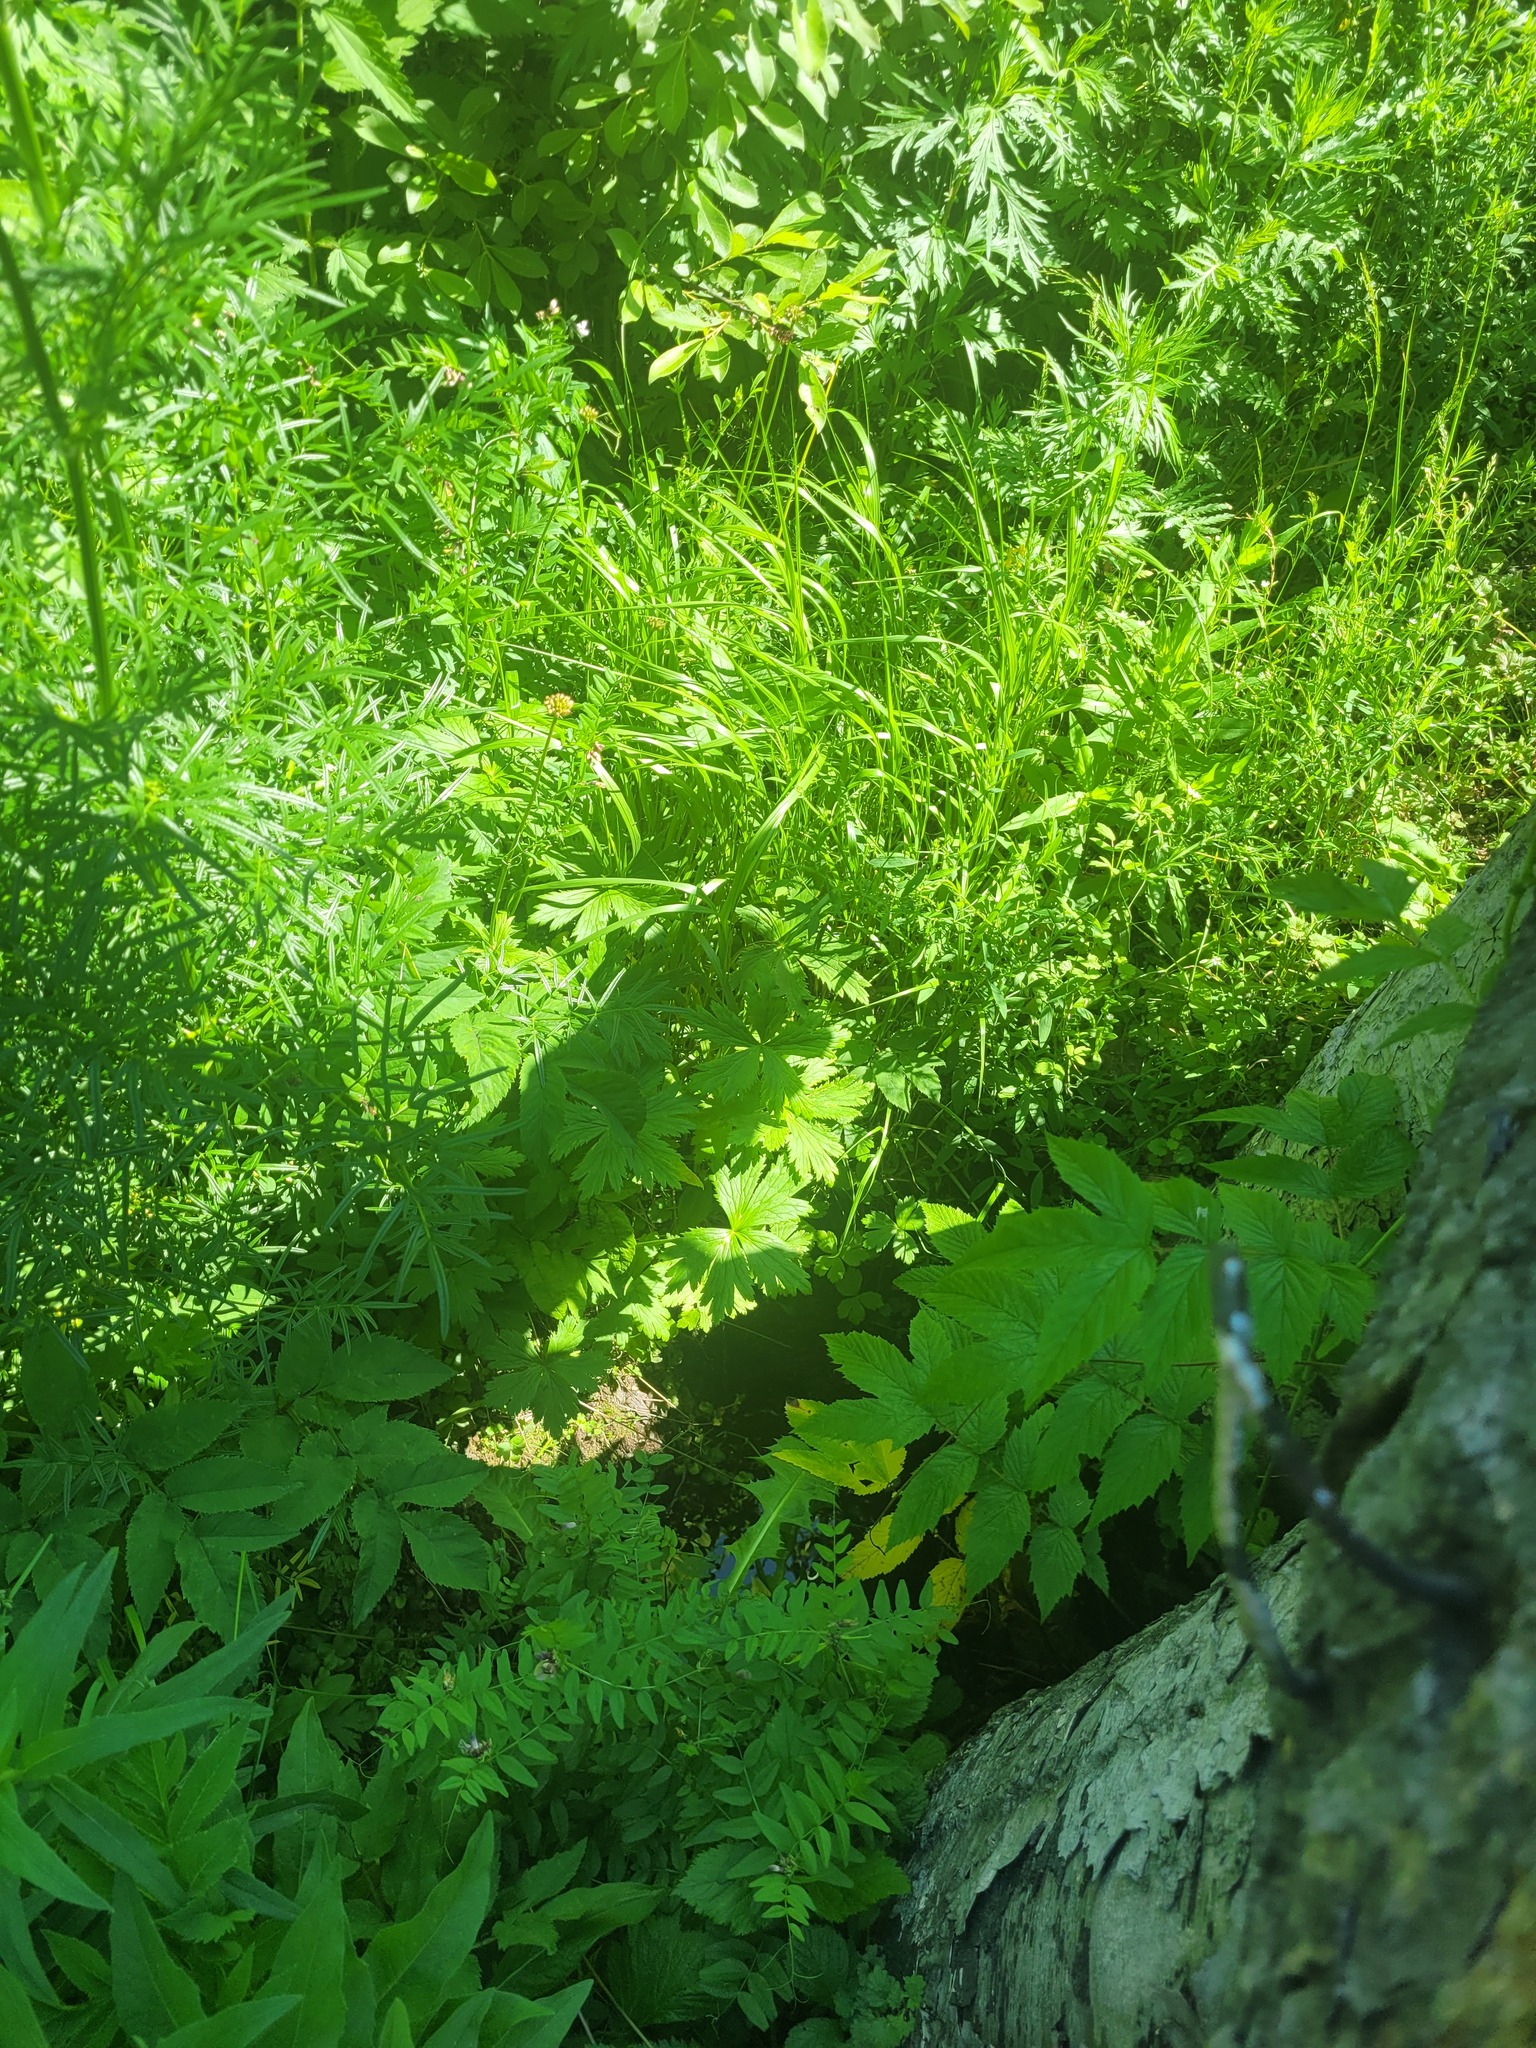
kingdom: Plantae
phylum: Tracheophyta
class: Magnoliopsida
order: Ranunculales
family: Ranunculaceae
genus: Trollius
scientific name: Trollius europaeus
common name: European globeflower
